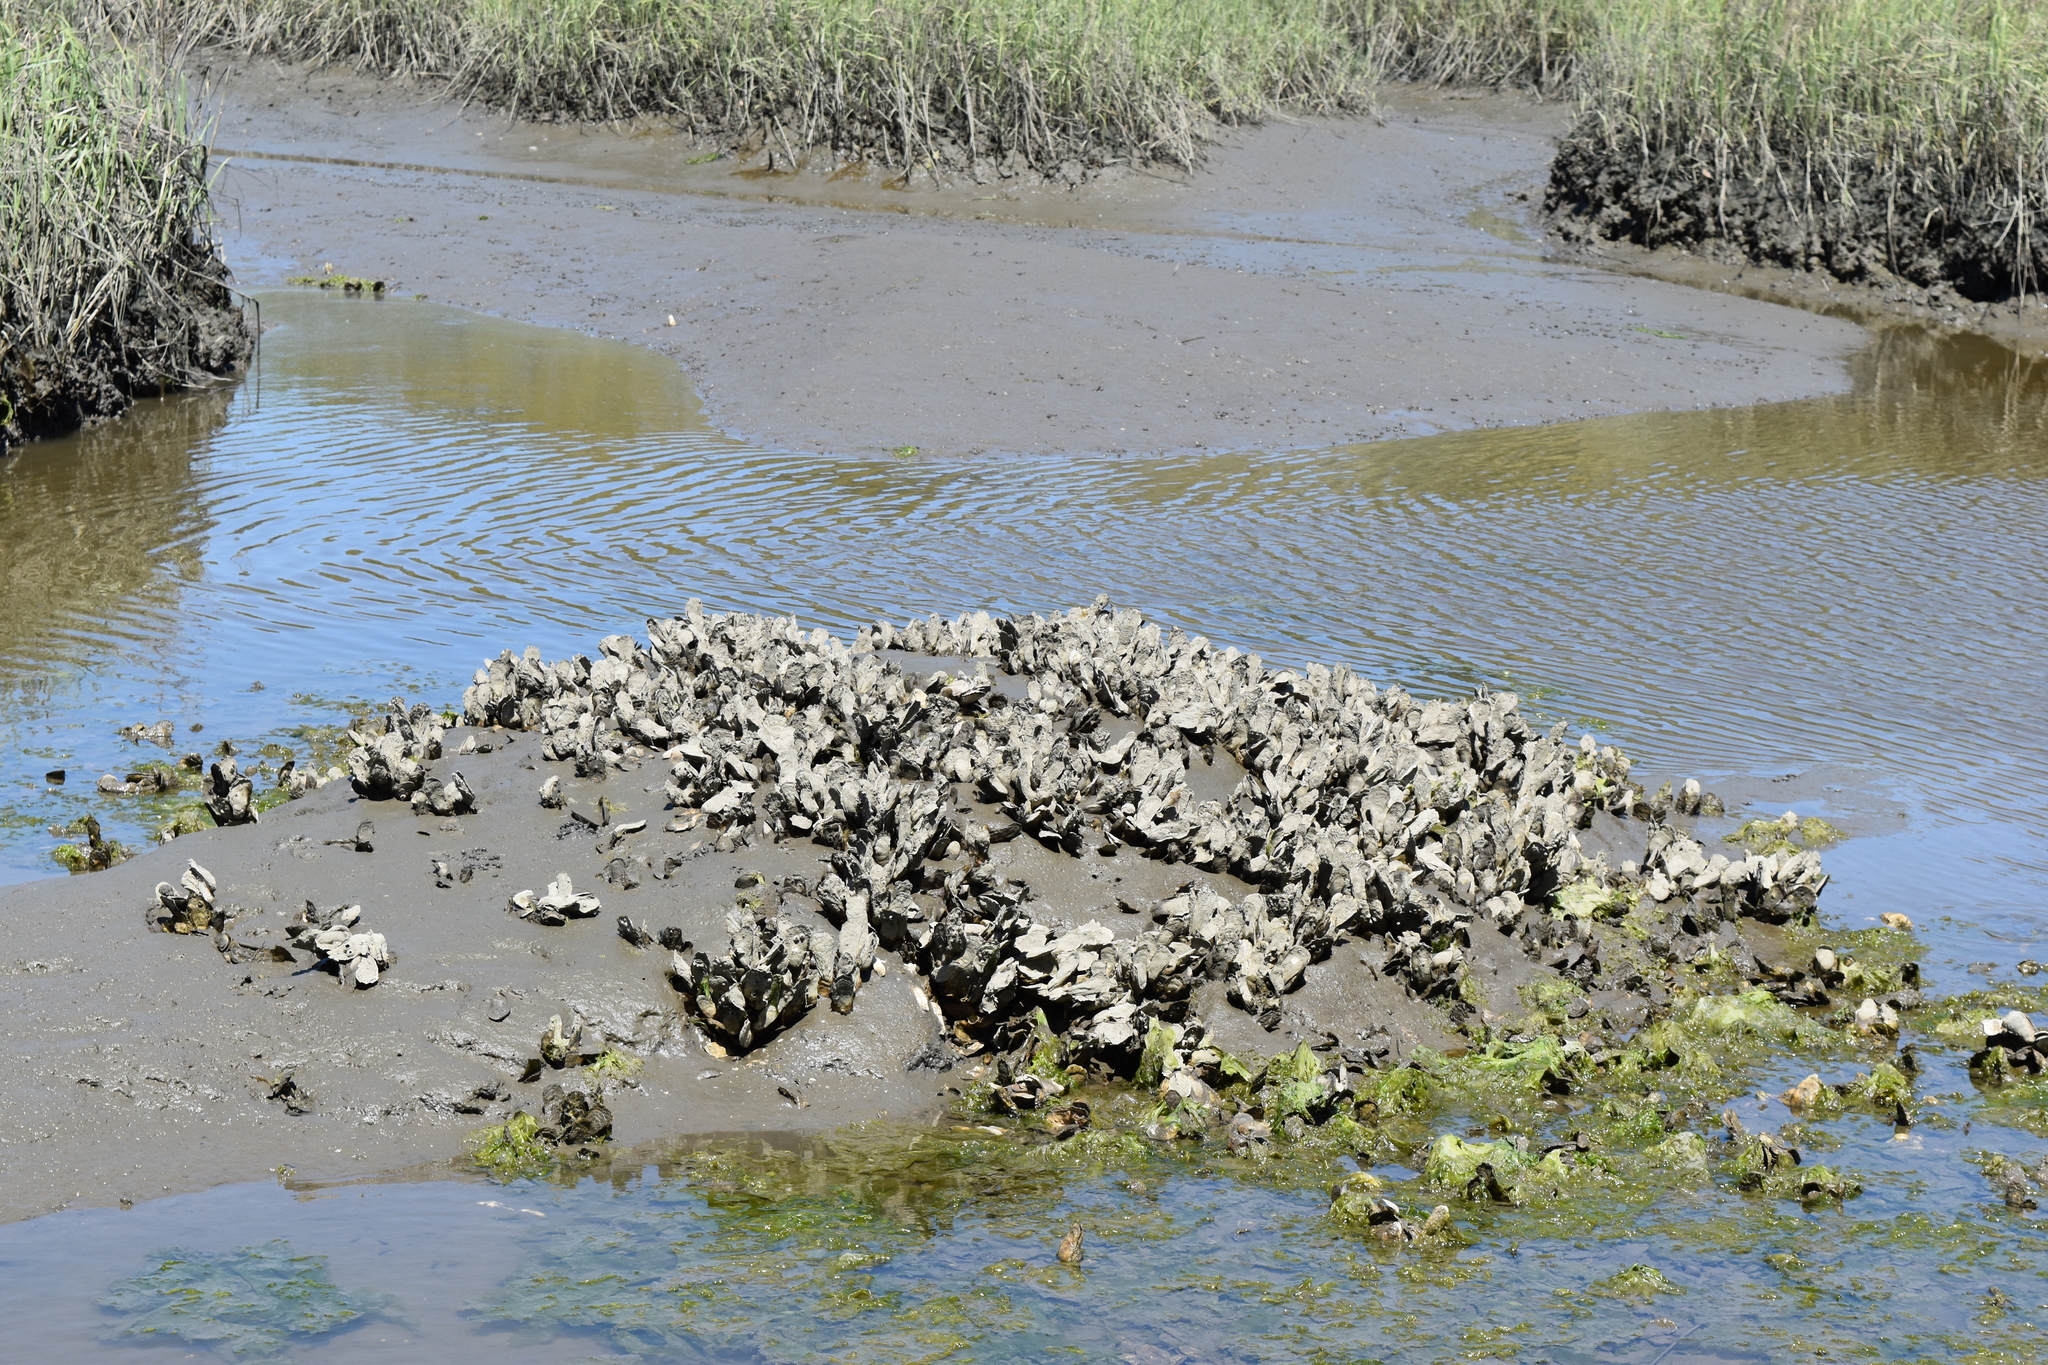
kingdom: Animalia
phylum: Mollusca
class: Bivalvia
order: Ostreida
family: Ostreidae
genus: Crassostrea
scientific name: Crassostrea virginica
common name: American oyster
